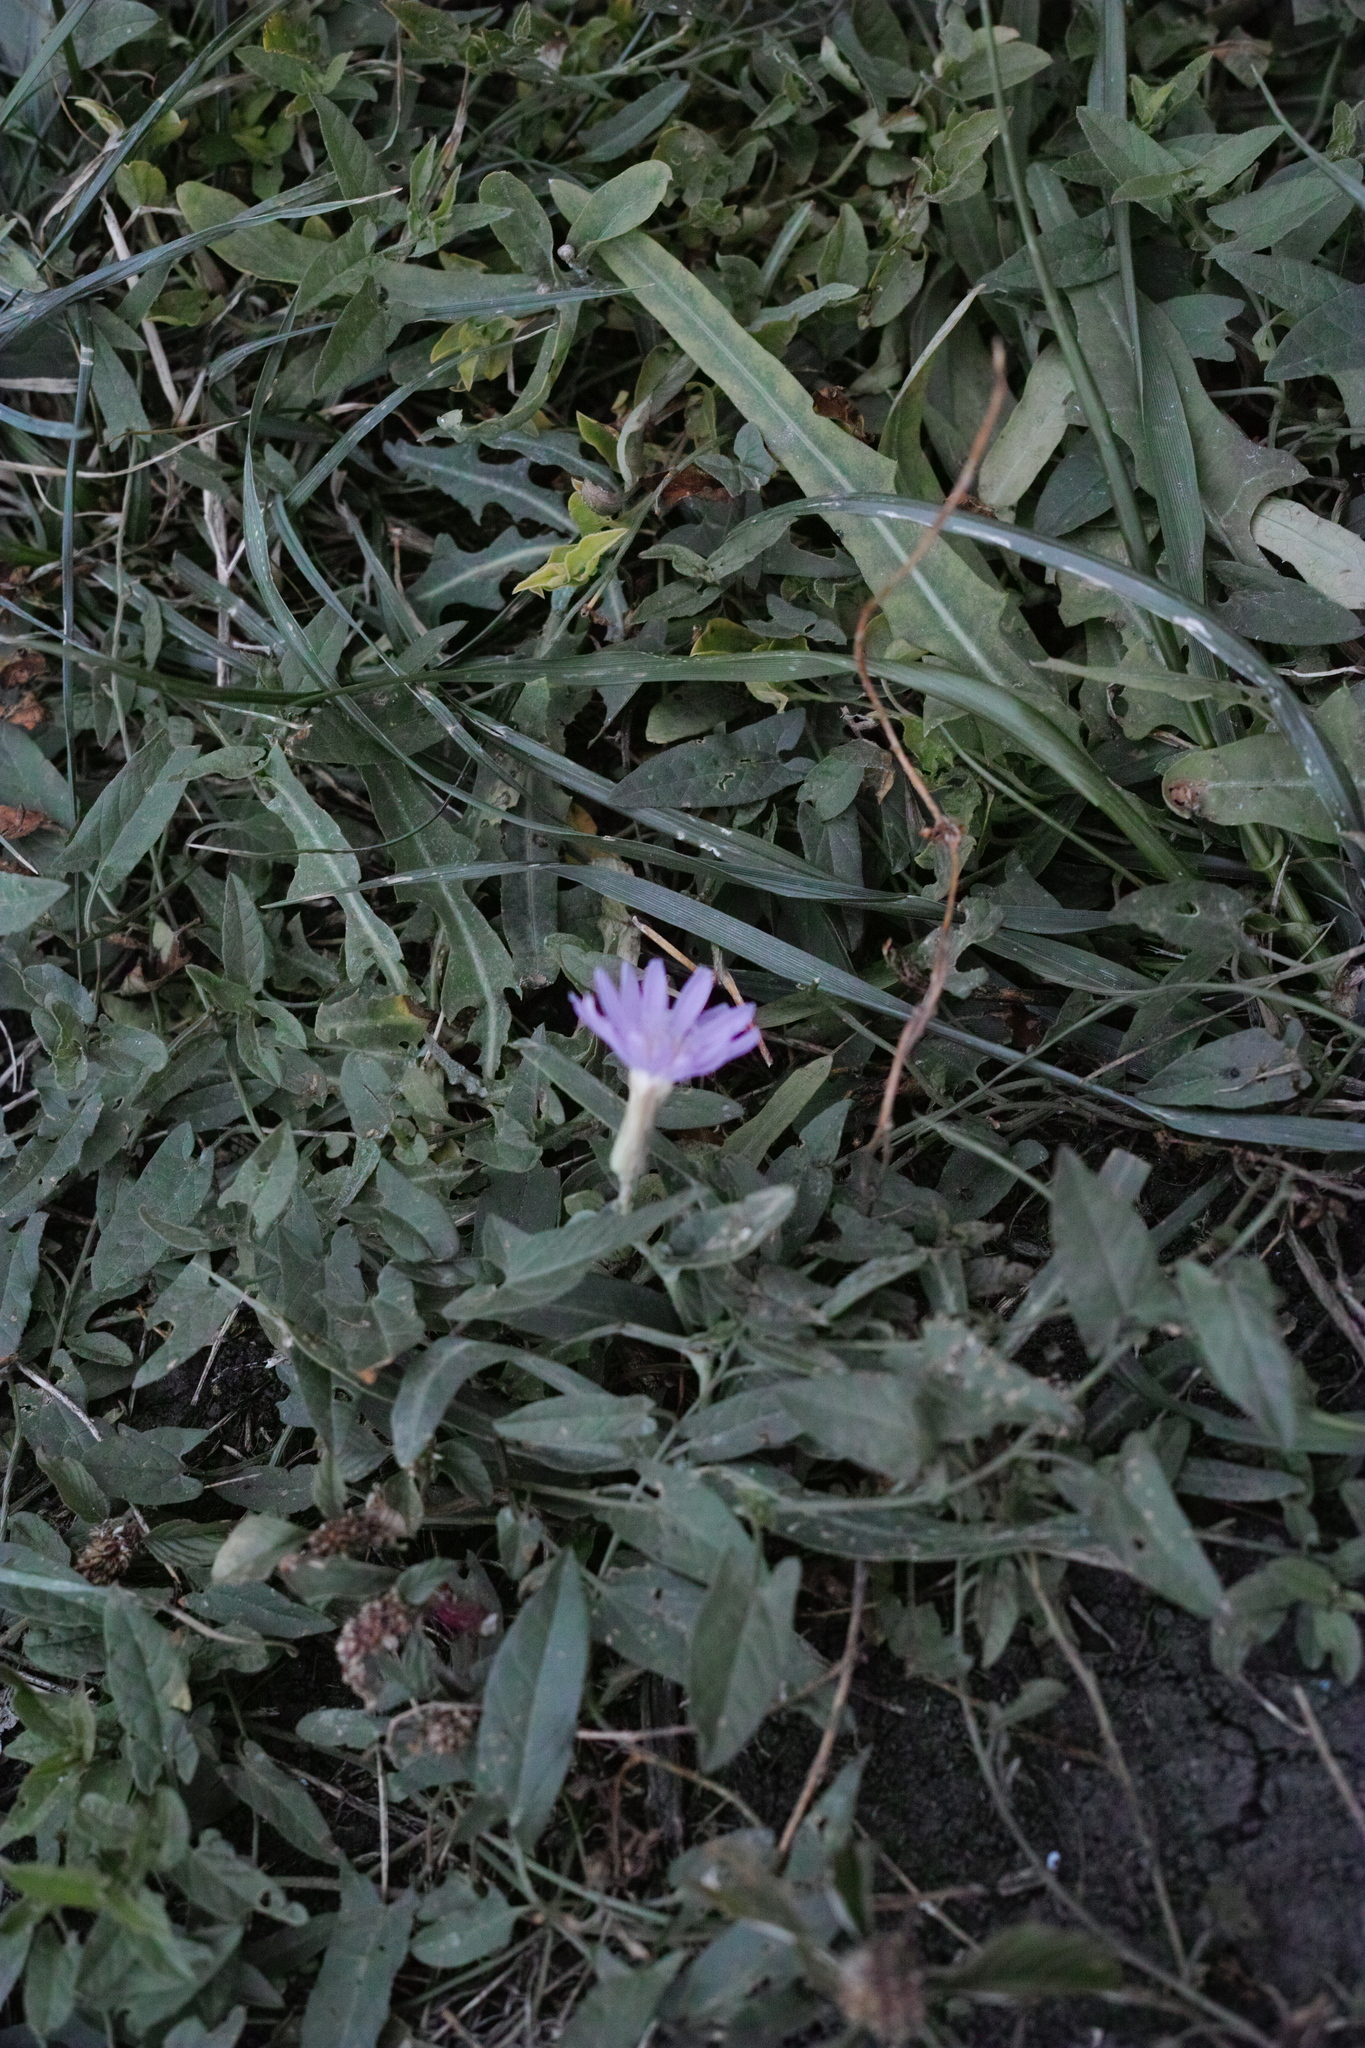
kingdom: Plantae
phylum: Tracheophyta
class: Magnoliopsida
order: Asterales
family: Asteraceae
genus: Lactuca
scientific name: Lactuca tatarica
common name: Blue lettuce
